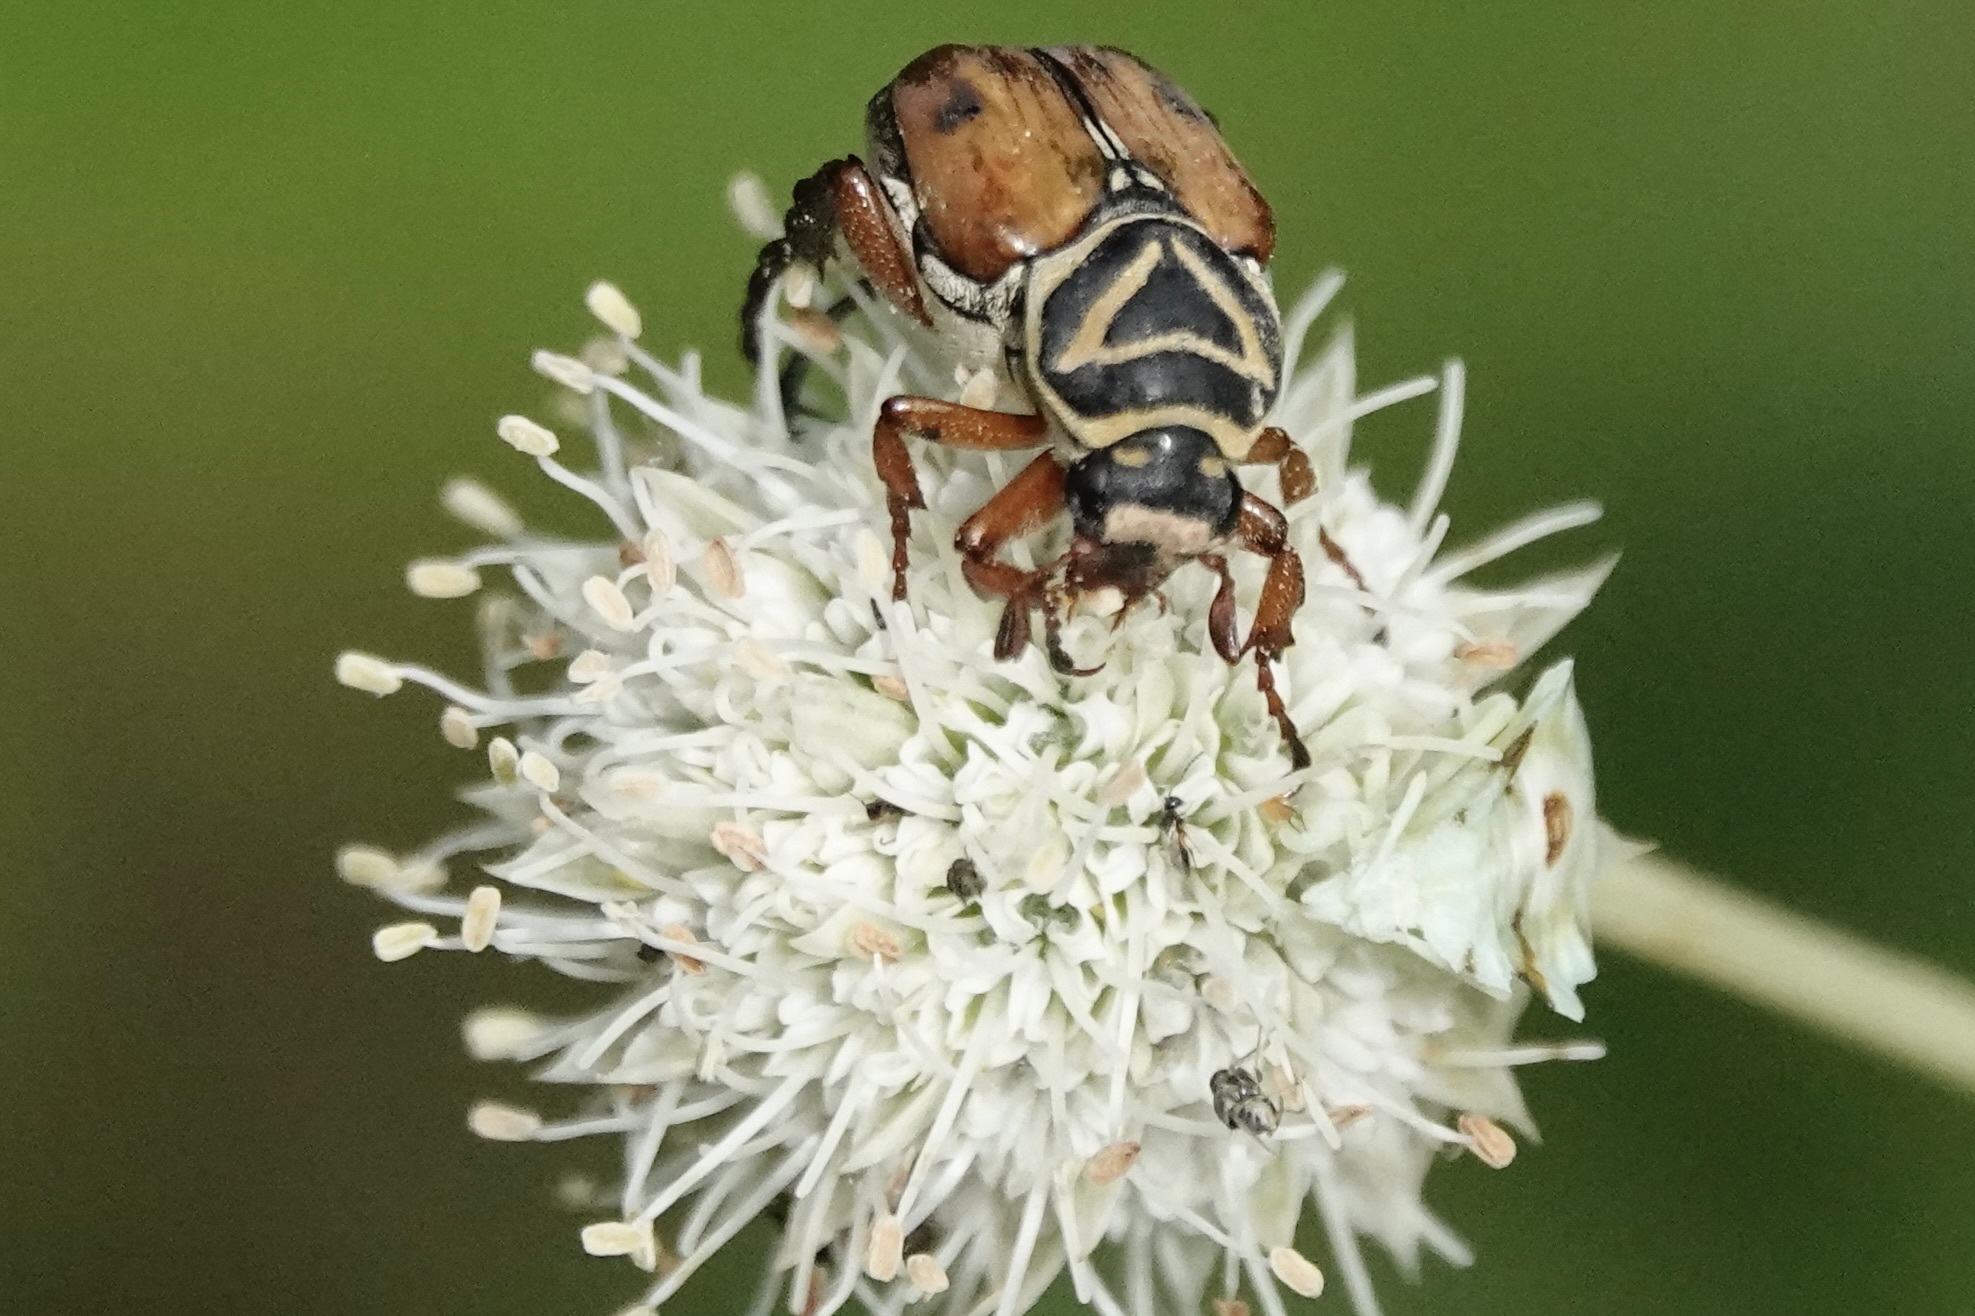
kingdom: Animalia
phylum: Arthropoda
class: Insecta
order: Coleoptera
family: Scarabaeidae
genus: Trigonopeltastes
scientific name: Trigonopeltastes delta
